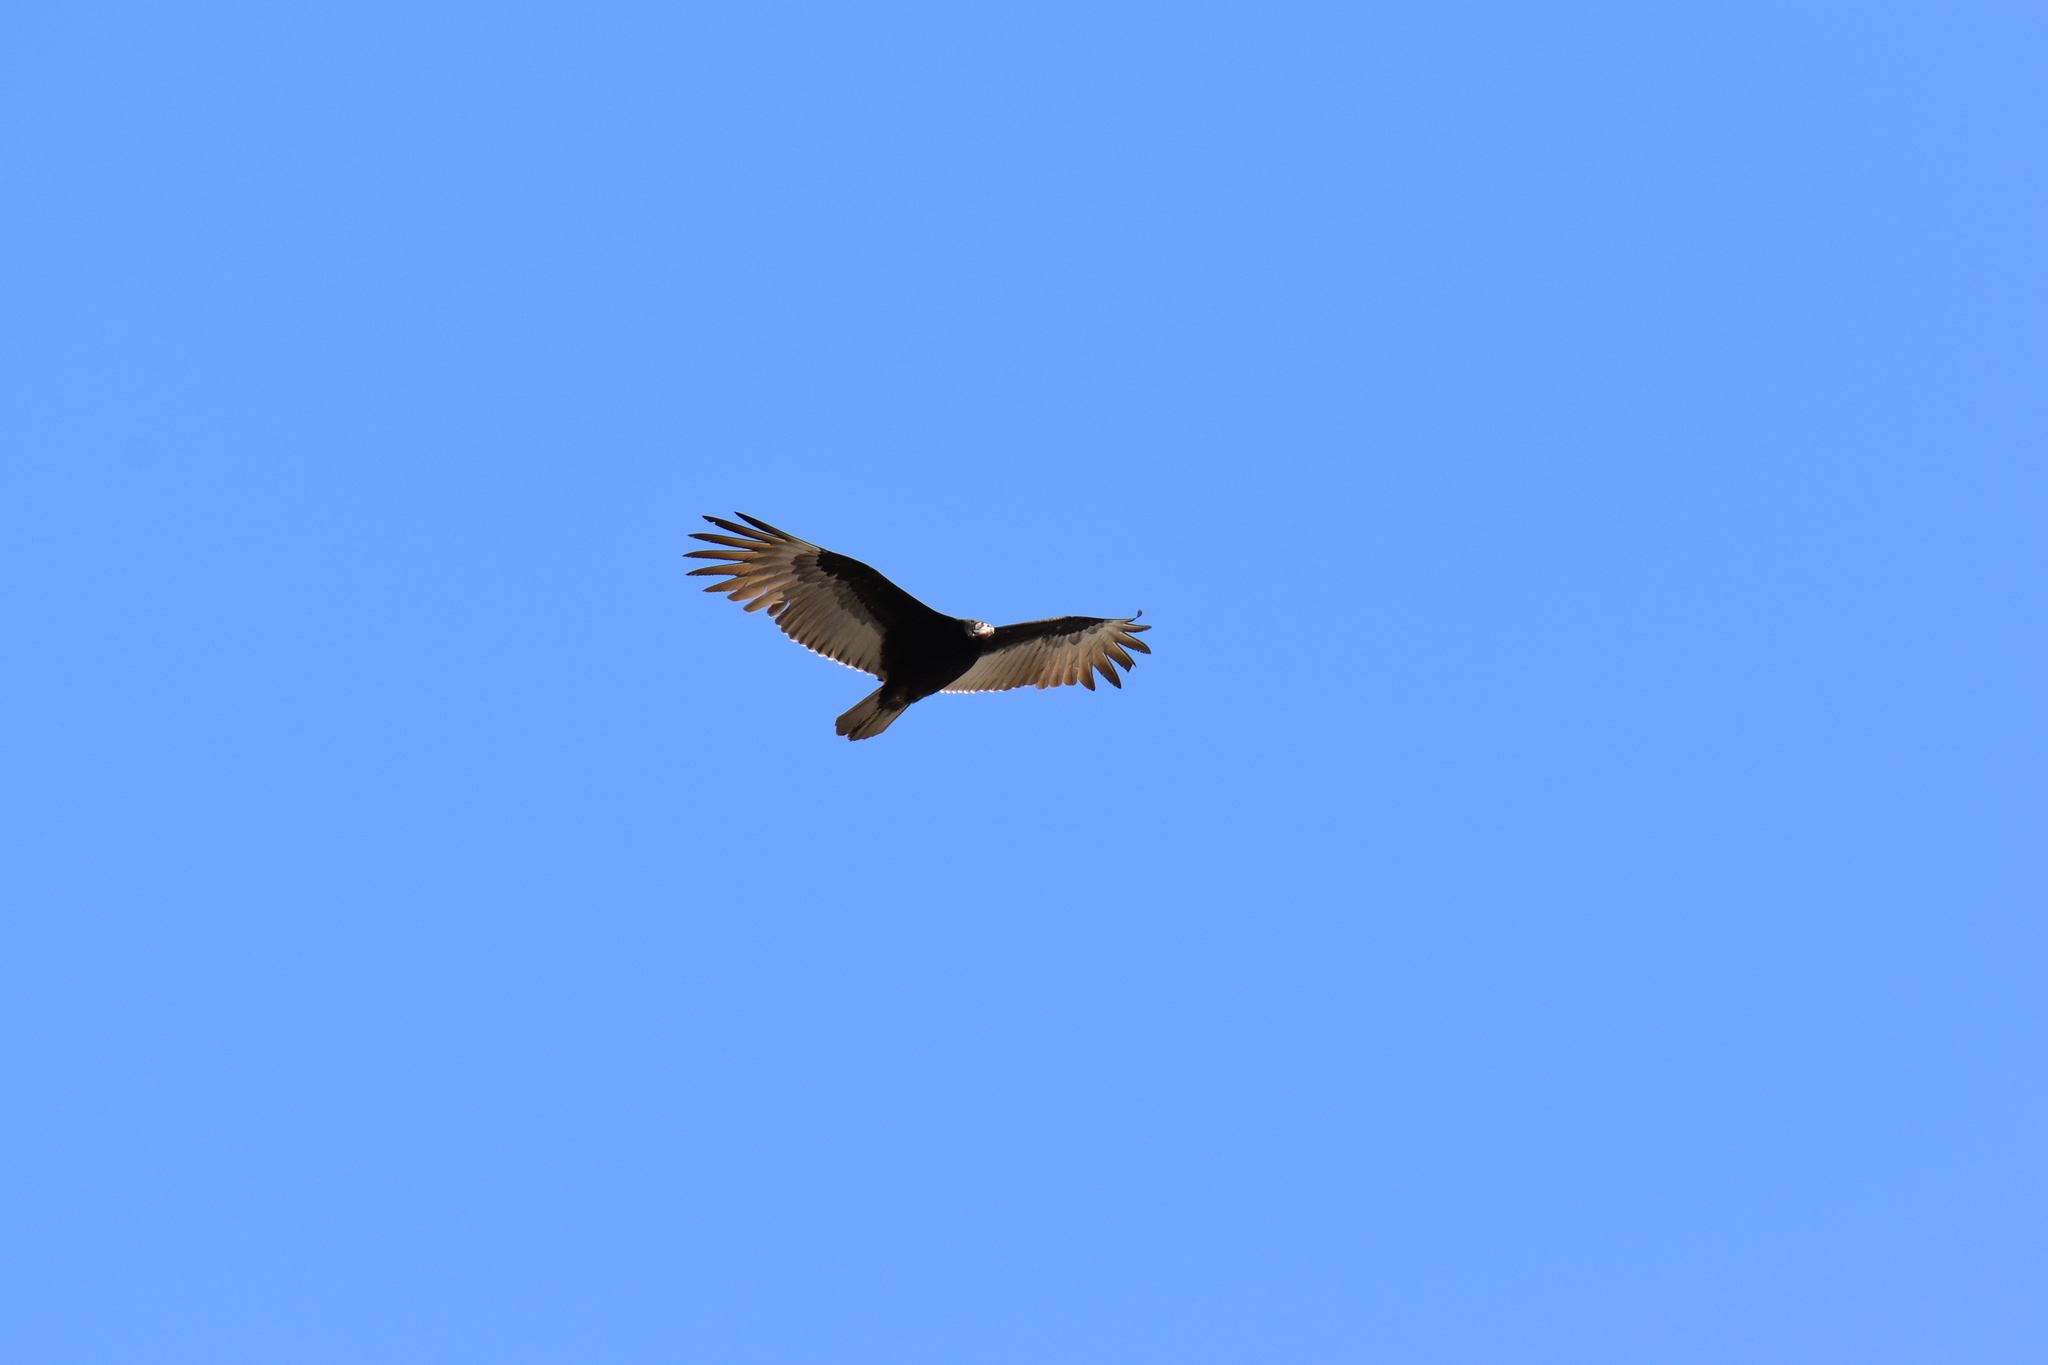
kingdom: Animalia
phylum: Chordata
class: Aves
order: Accipitriformes
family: Cathartidae
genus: Cathartes
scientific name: Cathartes aura
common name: Turkey vulture
